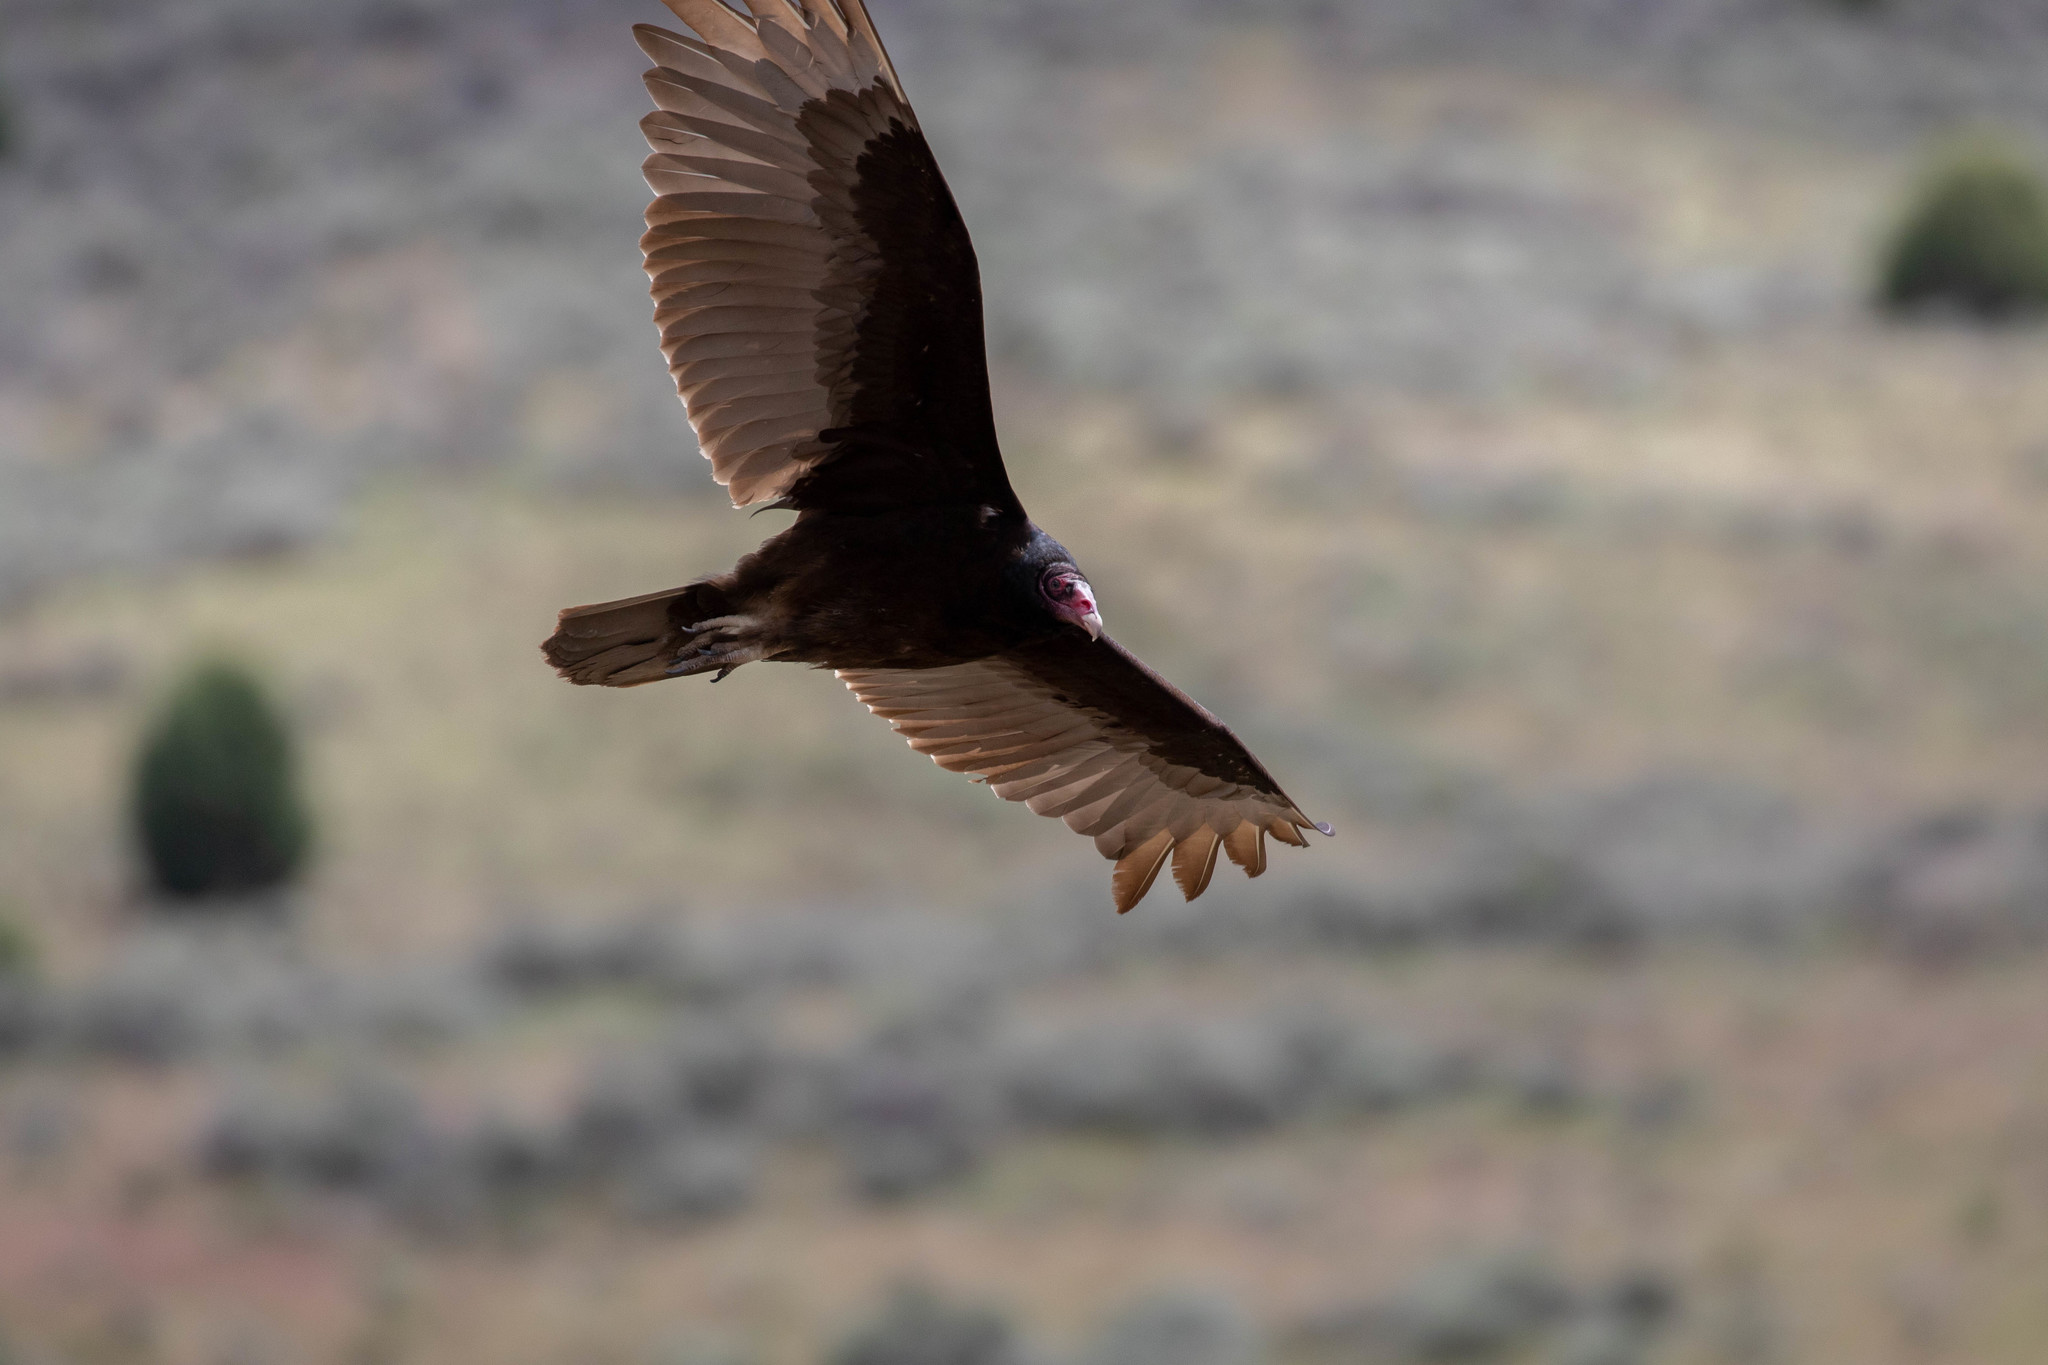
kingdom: Animalia
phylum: Chordata
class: Aves
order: Accipitriformes
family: Cathartidae
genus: Cathartes
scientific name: Cathartes aura
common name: Turkey vulture
